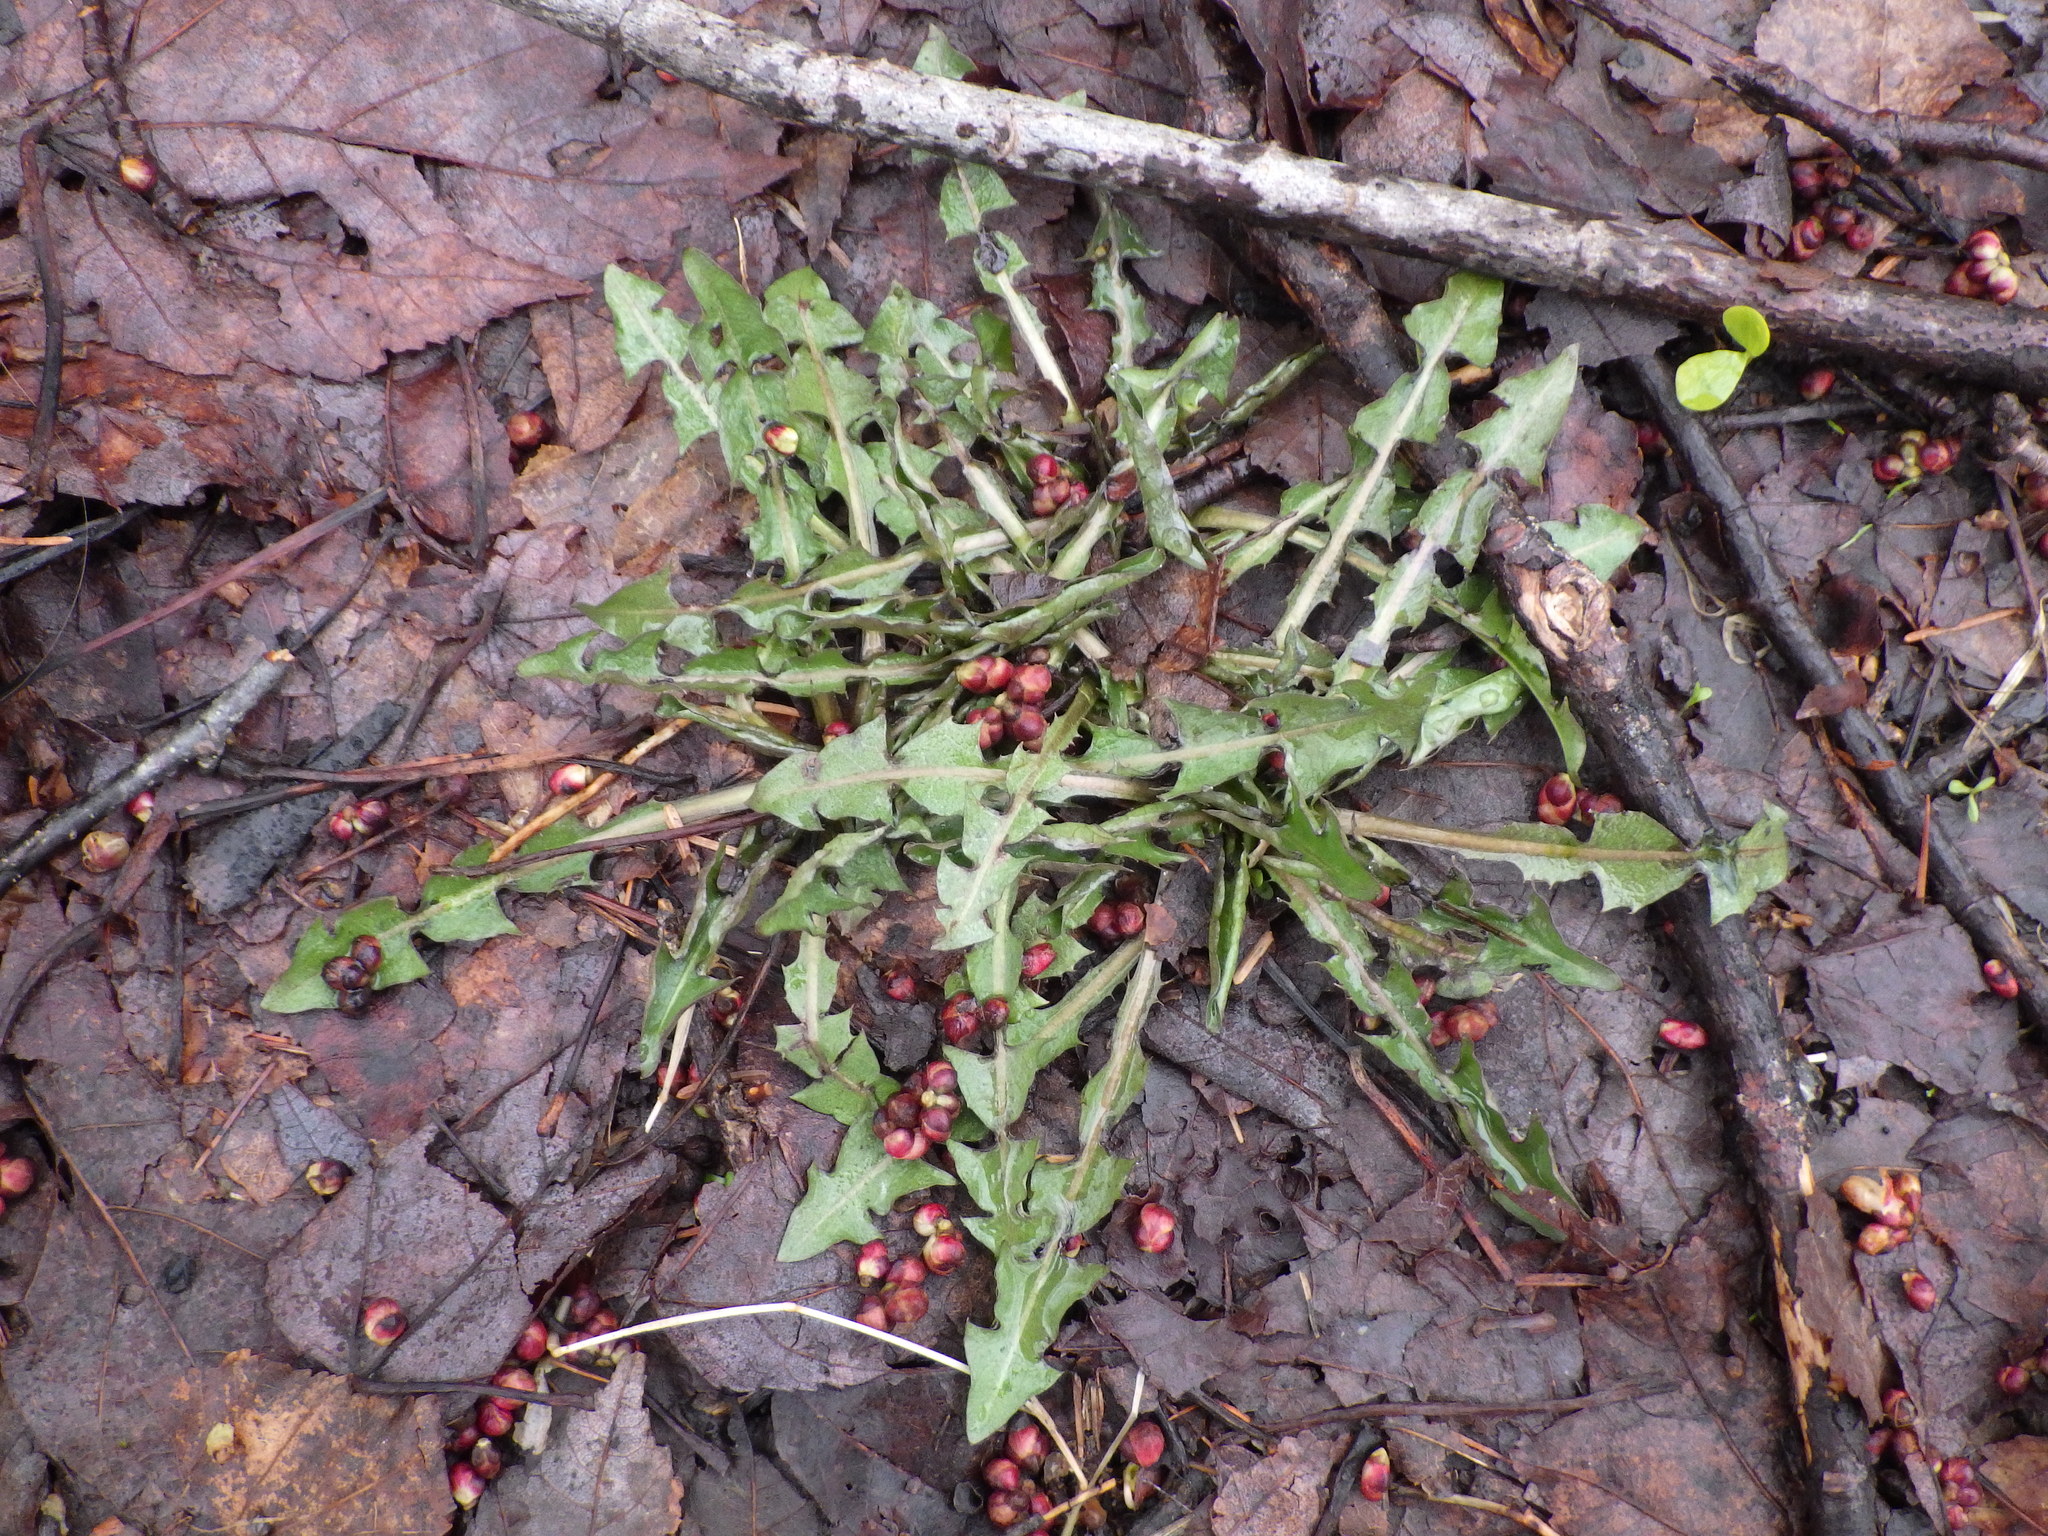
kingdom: Plantae
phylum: Tracheophyta
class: Magnoliopsida
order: Asterales
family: Asteraceae
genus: Taraxacum
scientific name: Taraxacum officinale
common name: Common dandelion
